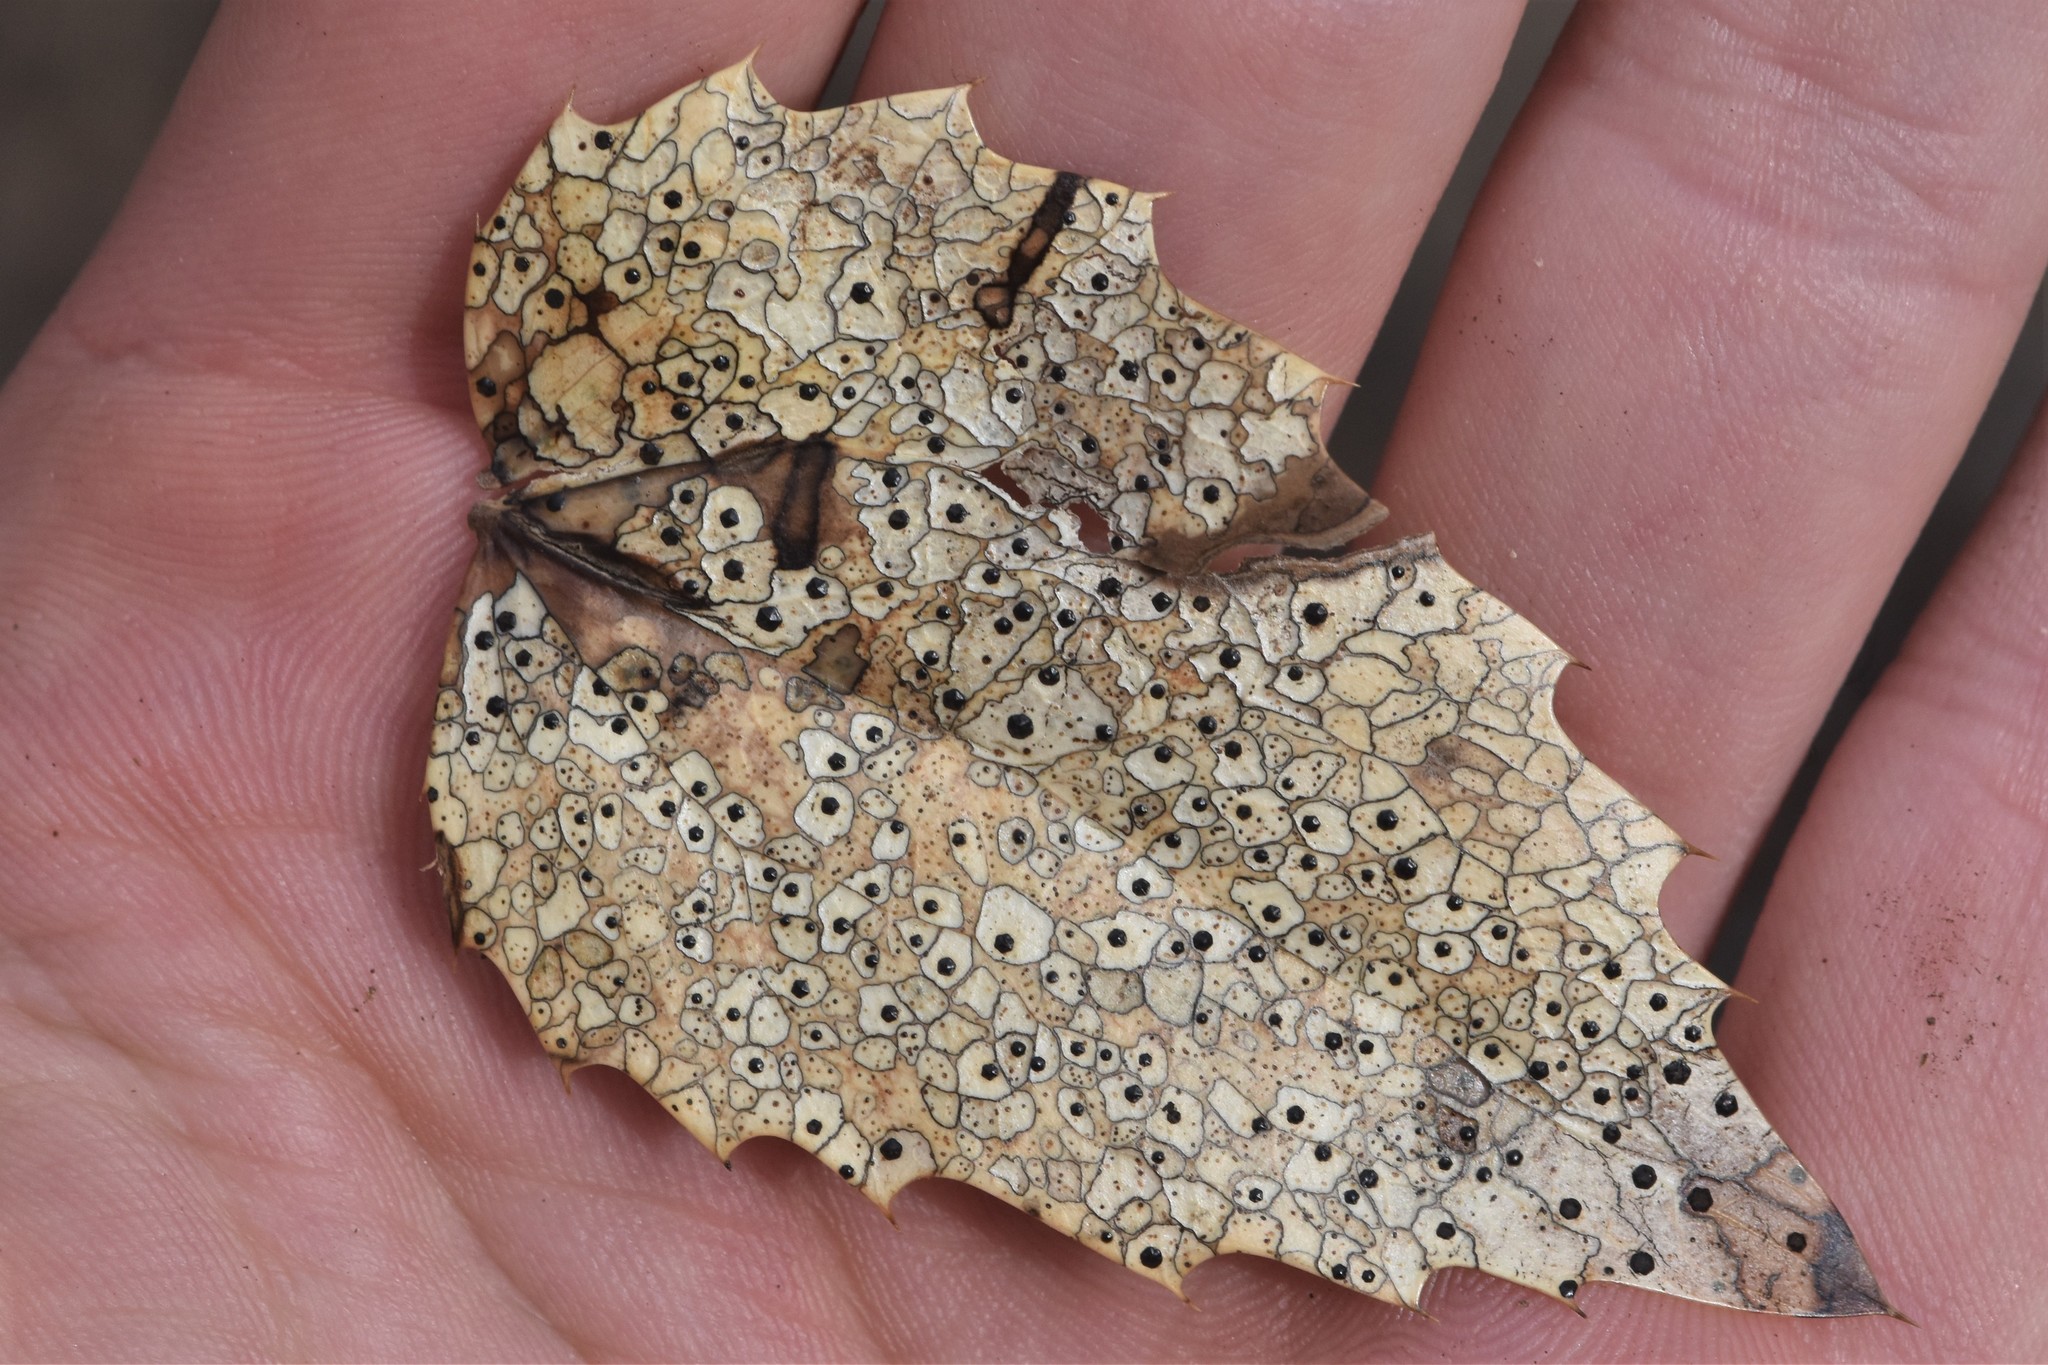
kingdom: Fungi
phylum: Ascomycota
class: Leotiomycetes
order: Rhytismatales
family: Rhytismataceae
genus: Coccomyces
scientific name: Coccomyces dentatus
